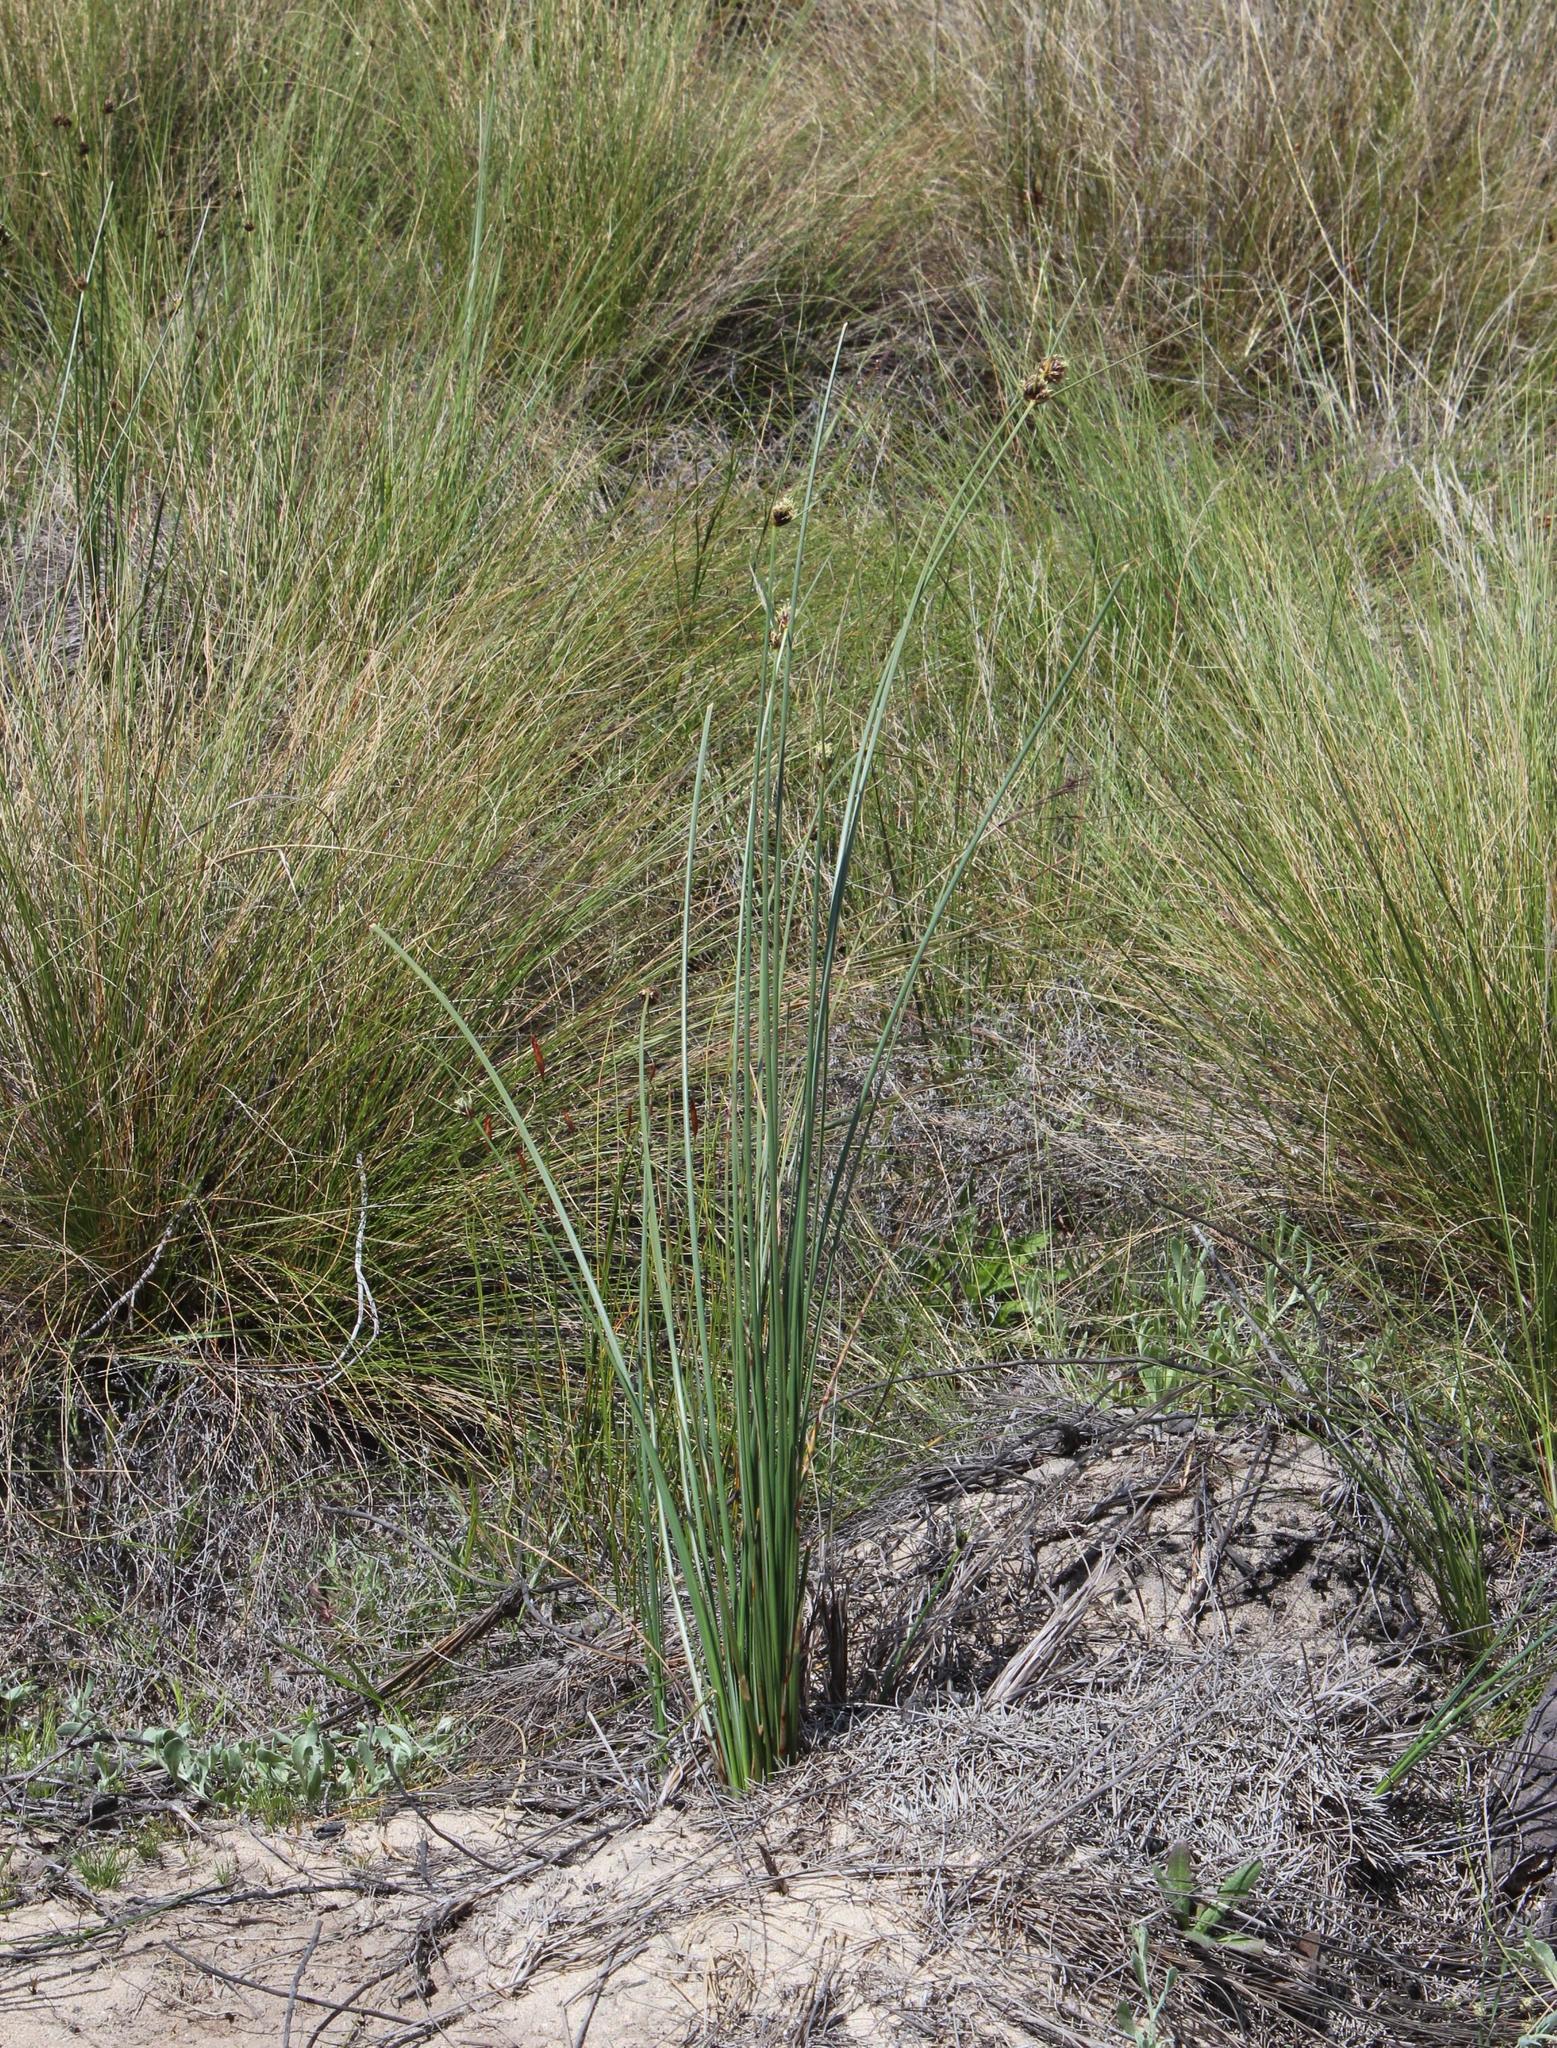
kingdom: Plantae
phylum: Tracheophyta
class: Liliopsida
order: Poales
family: Cyperaceae
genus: Ficinia
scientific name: Ficinia indica
